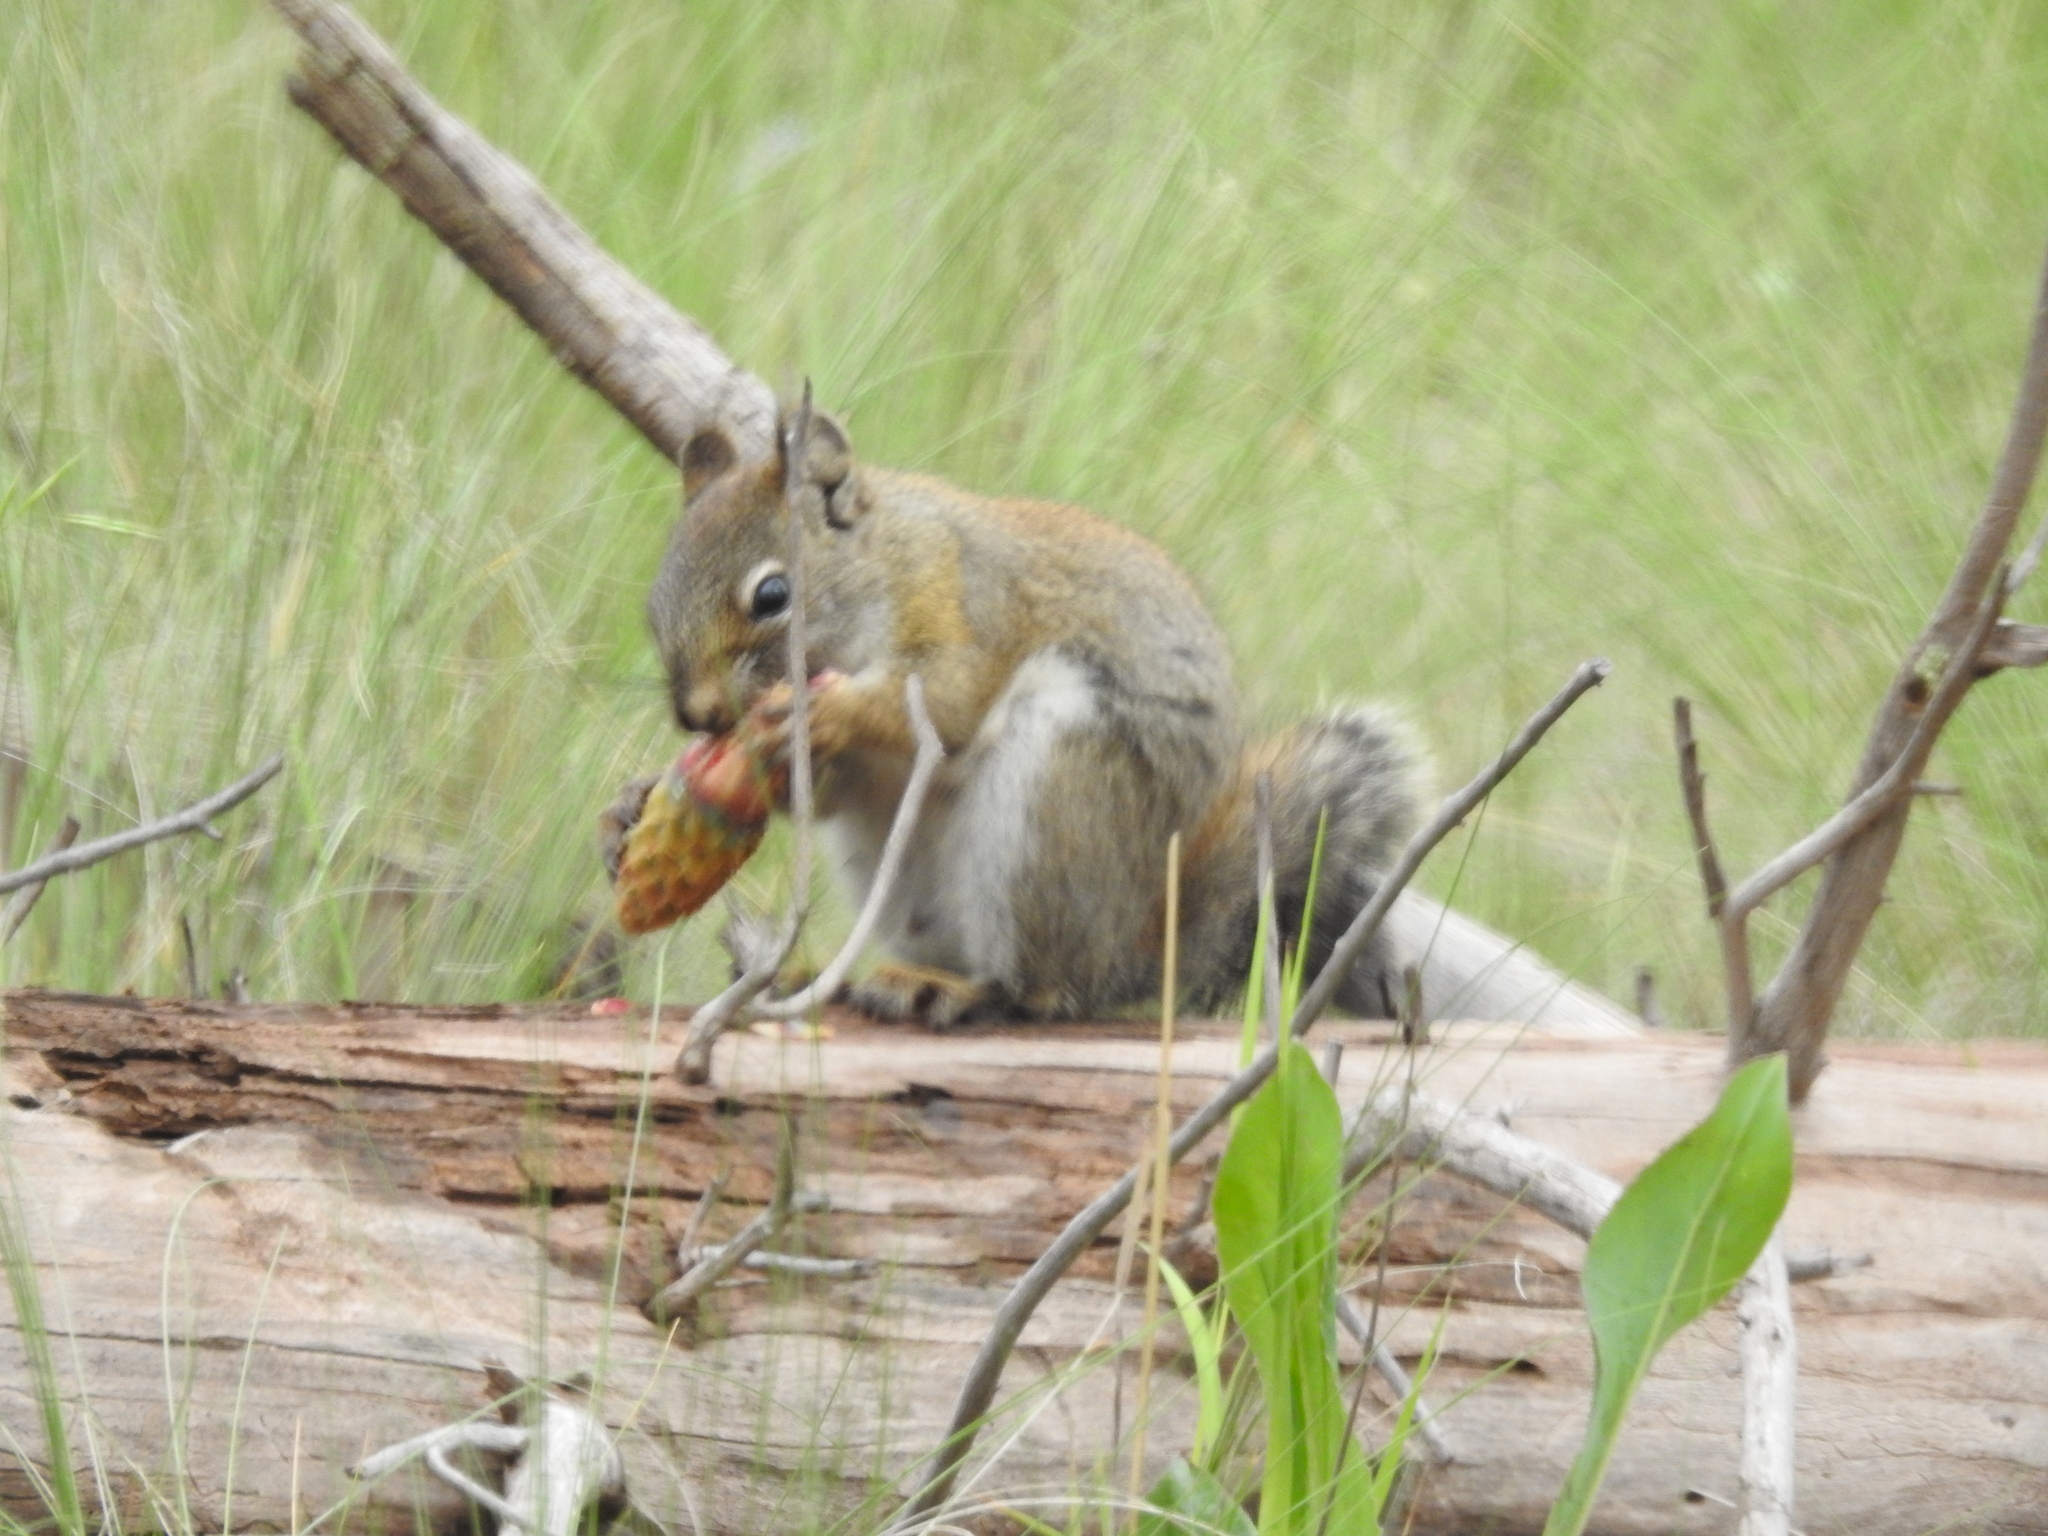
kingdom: Animalia
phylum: Chordata
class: Mammalia
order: Rodentia
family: Sciuridae
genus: Tamiasciurus
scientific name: Tamiasciurus hudsonicus
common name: Red squirrel
